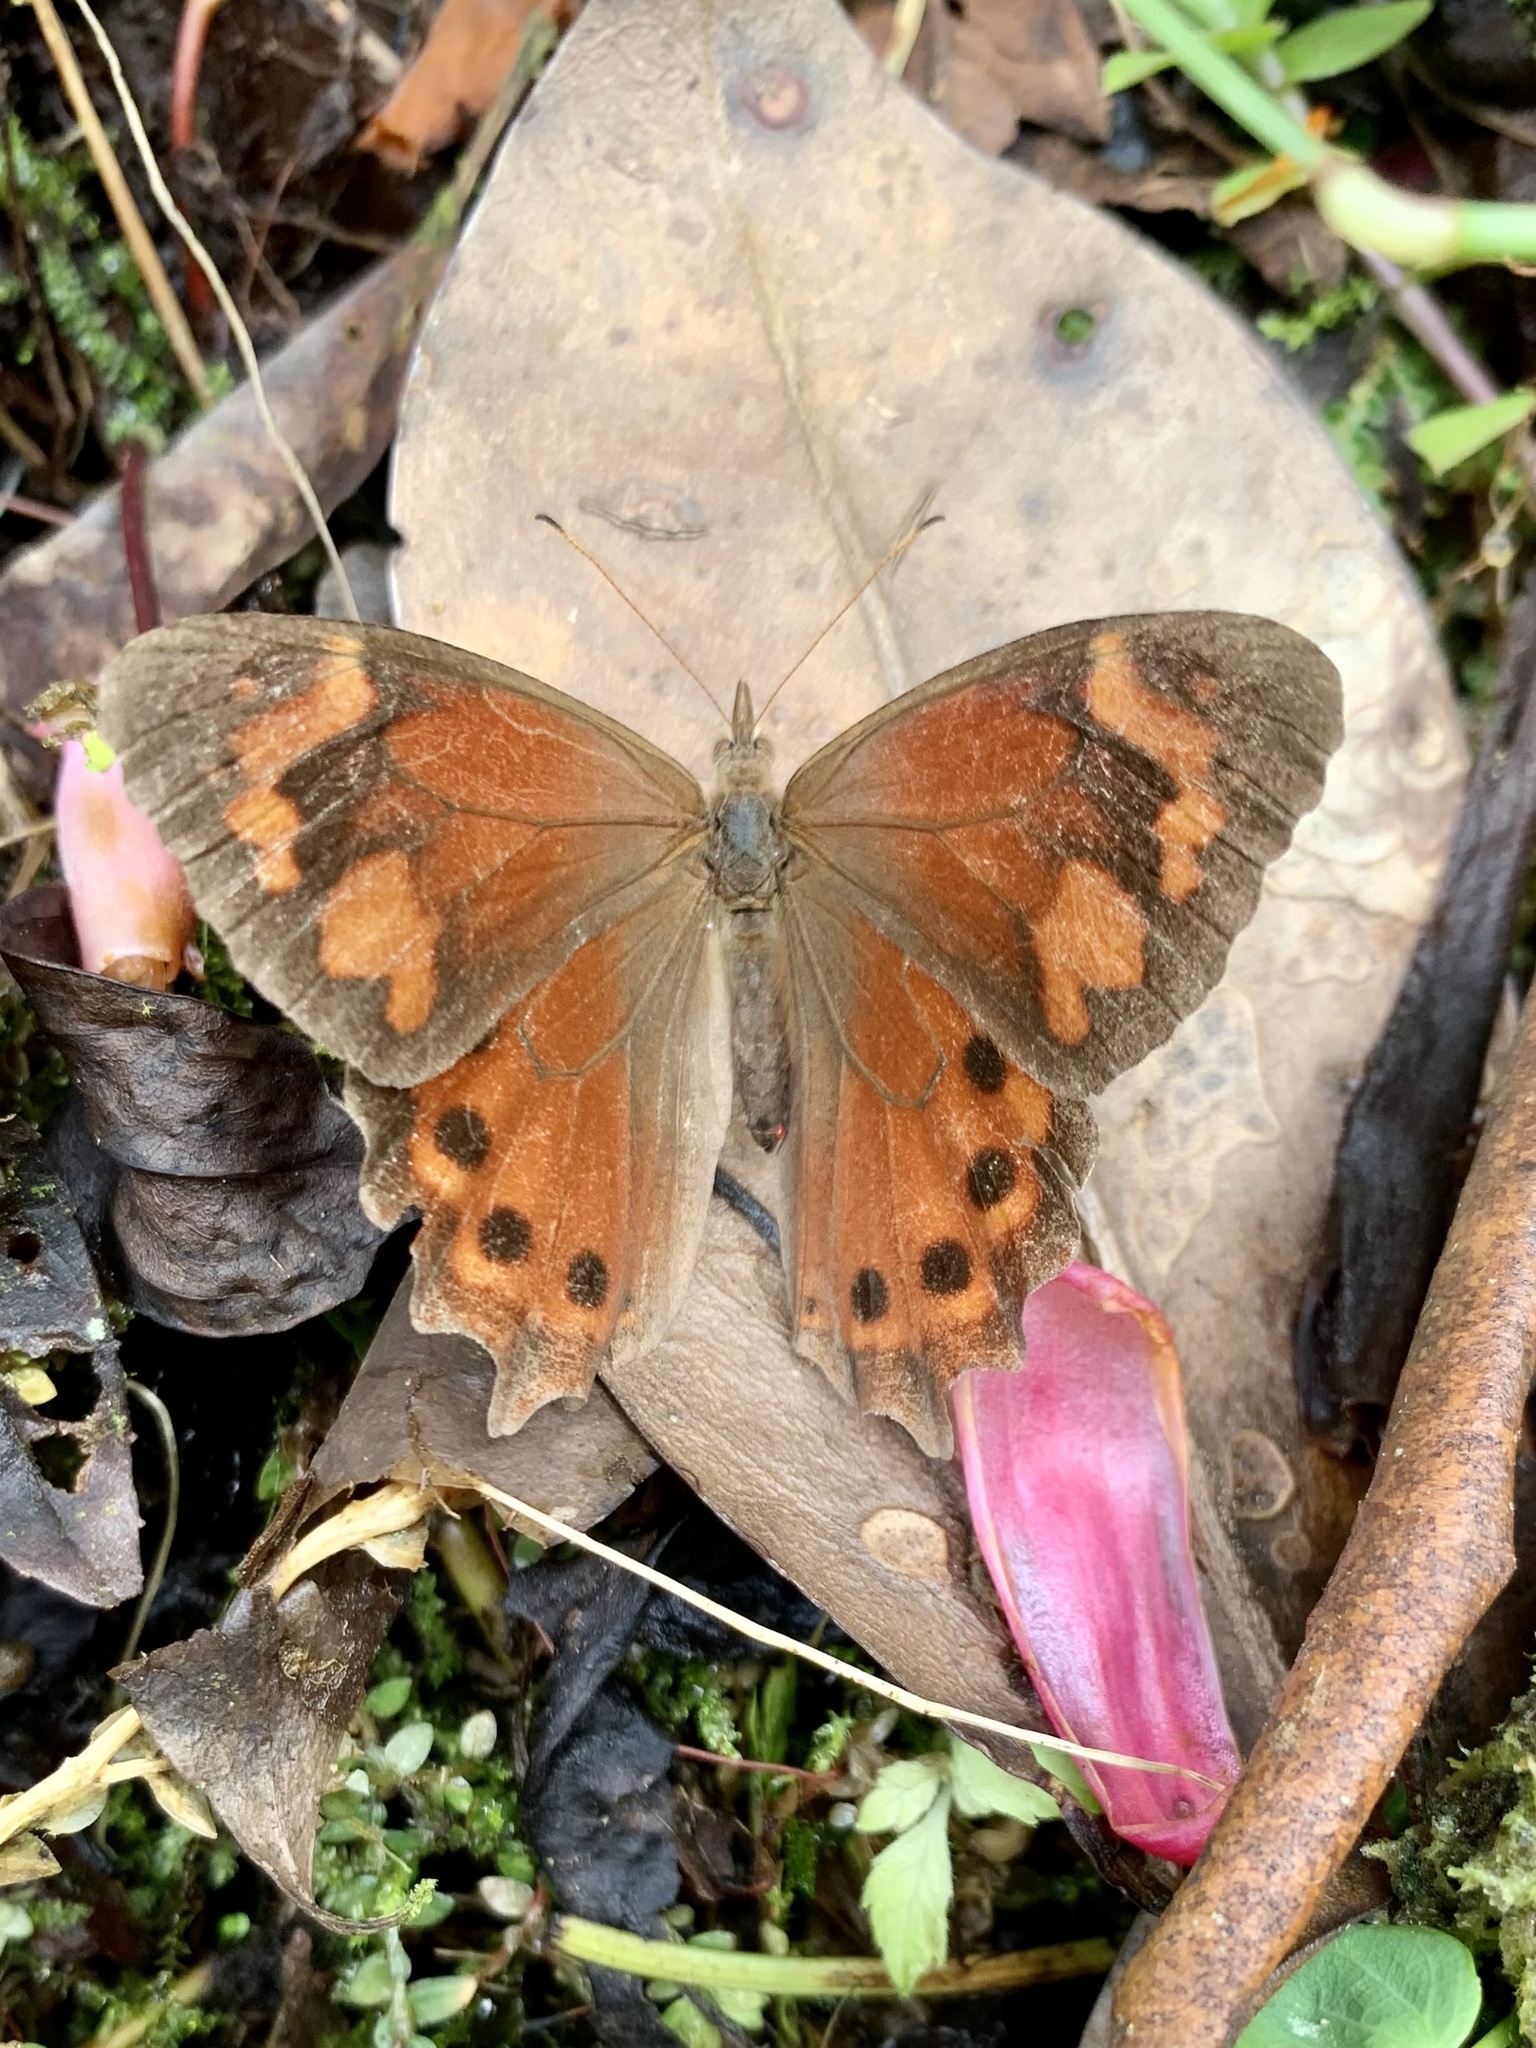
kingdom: Animalia
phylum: Arthropoda
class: Insecta
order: Lepidoptera
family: Nymphalidae
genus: Lasiophila
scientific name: Lasiophila zapatoza
